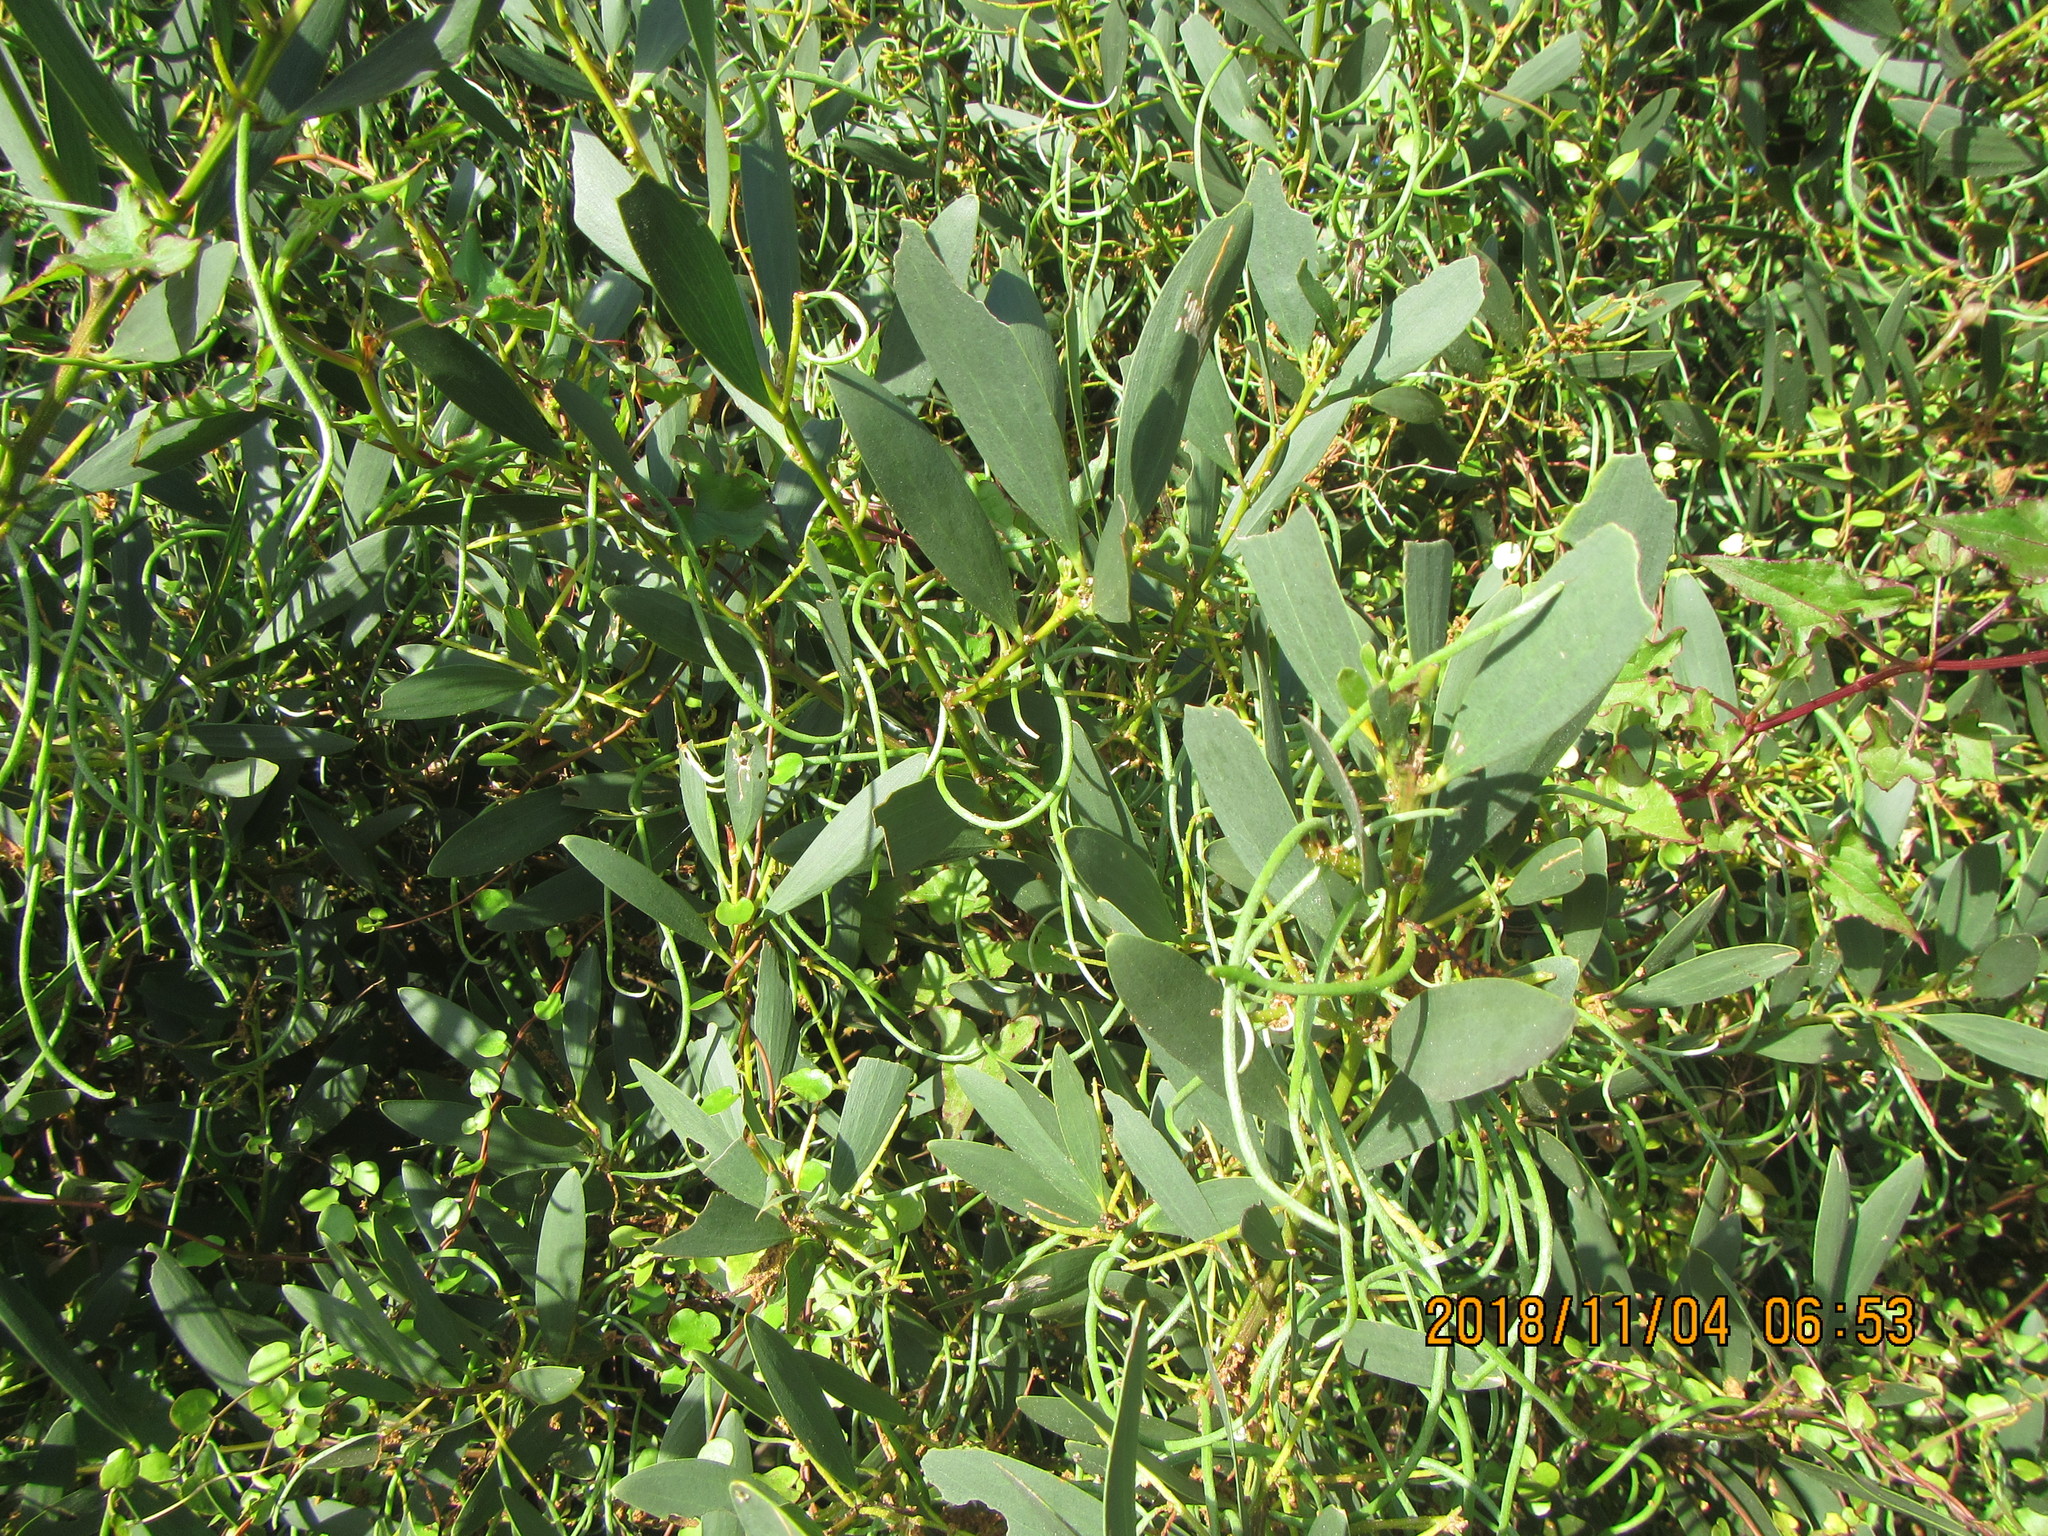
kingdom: Plantae
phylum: Tracheophyta
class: Magnoliopsida
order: Fabales
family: Fabaceae
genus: Acacia
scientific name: Acacia longifolia
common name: Sydney golden wattle
